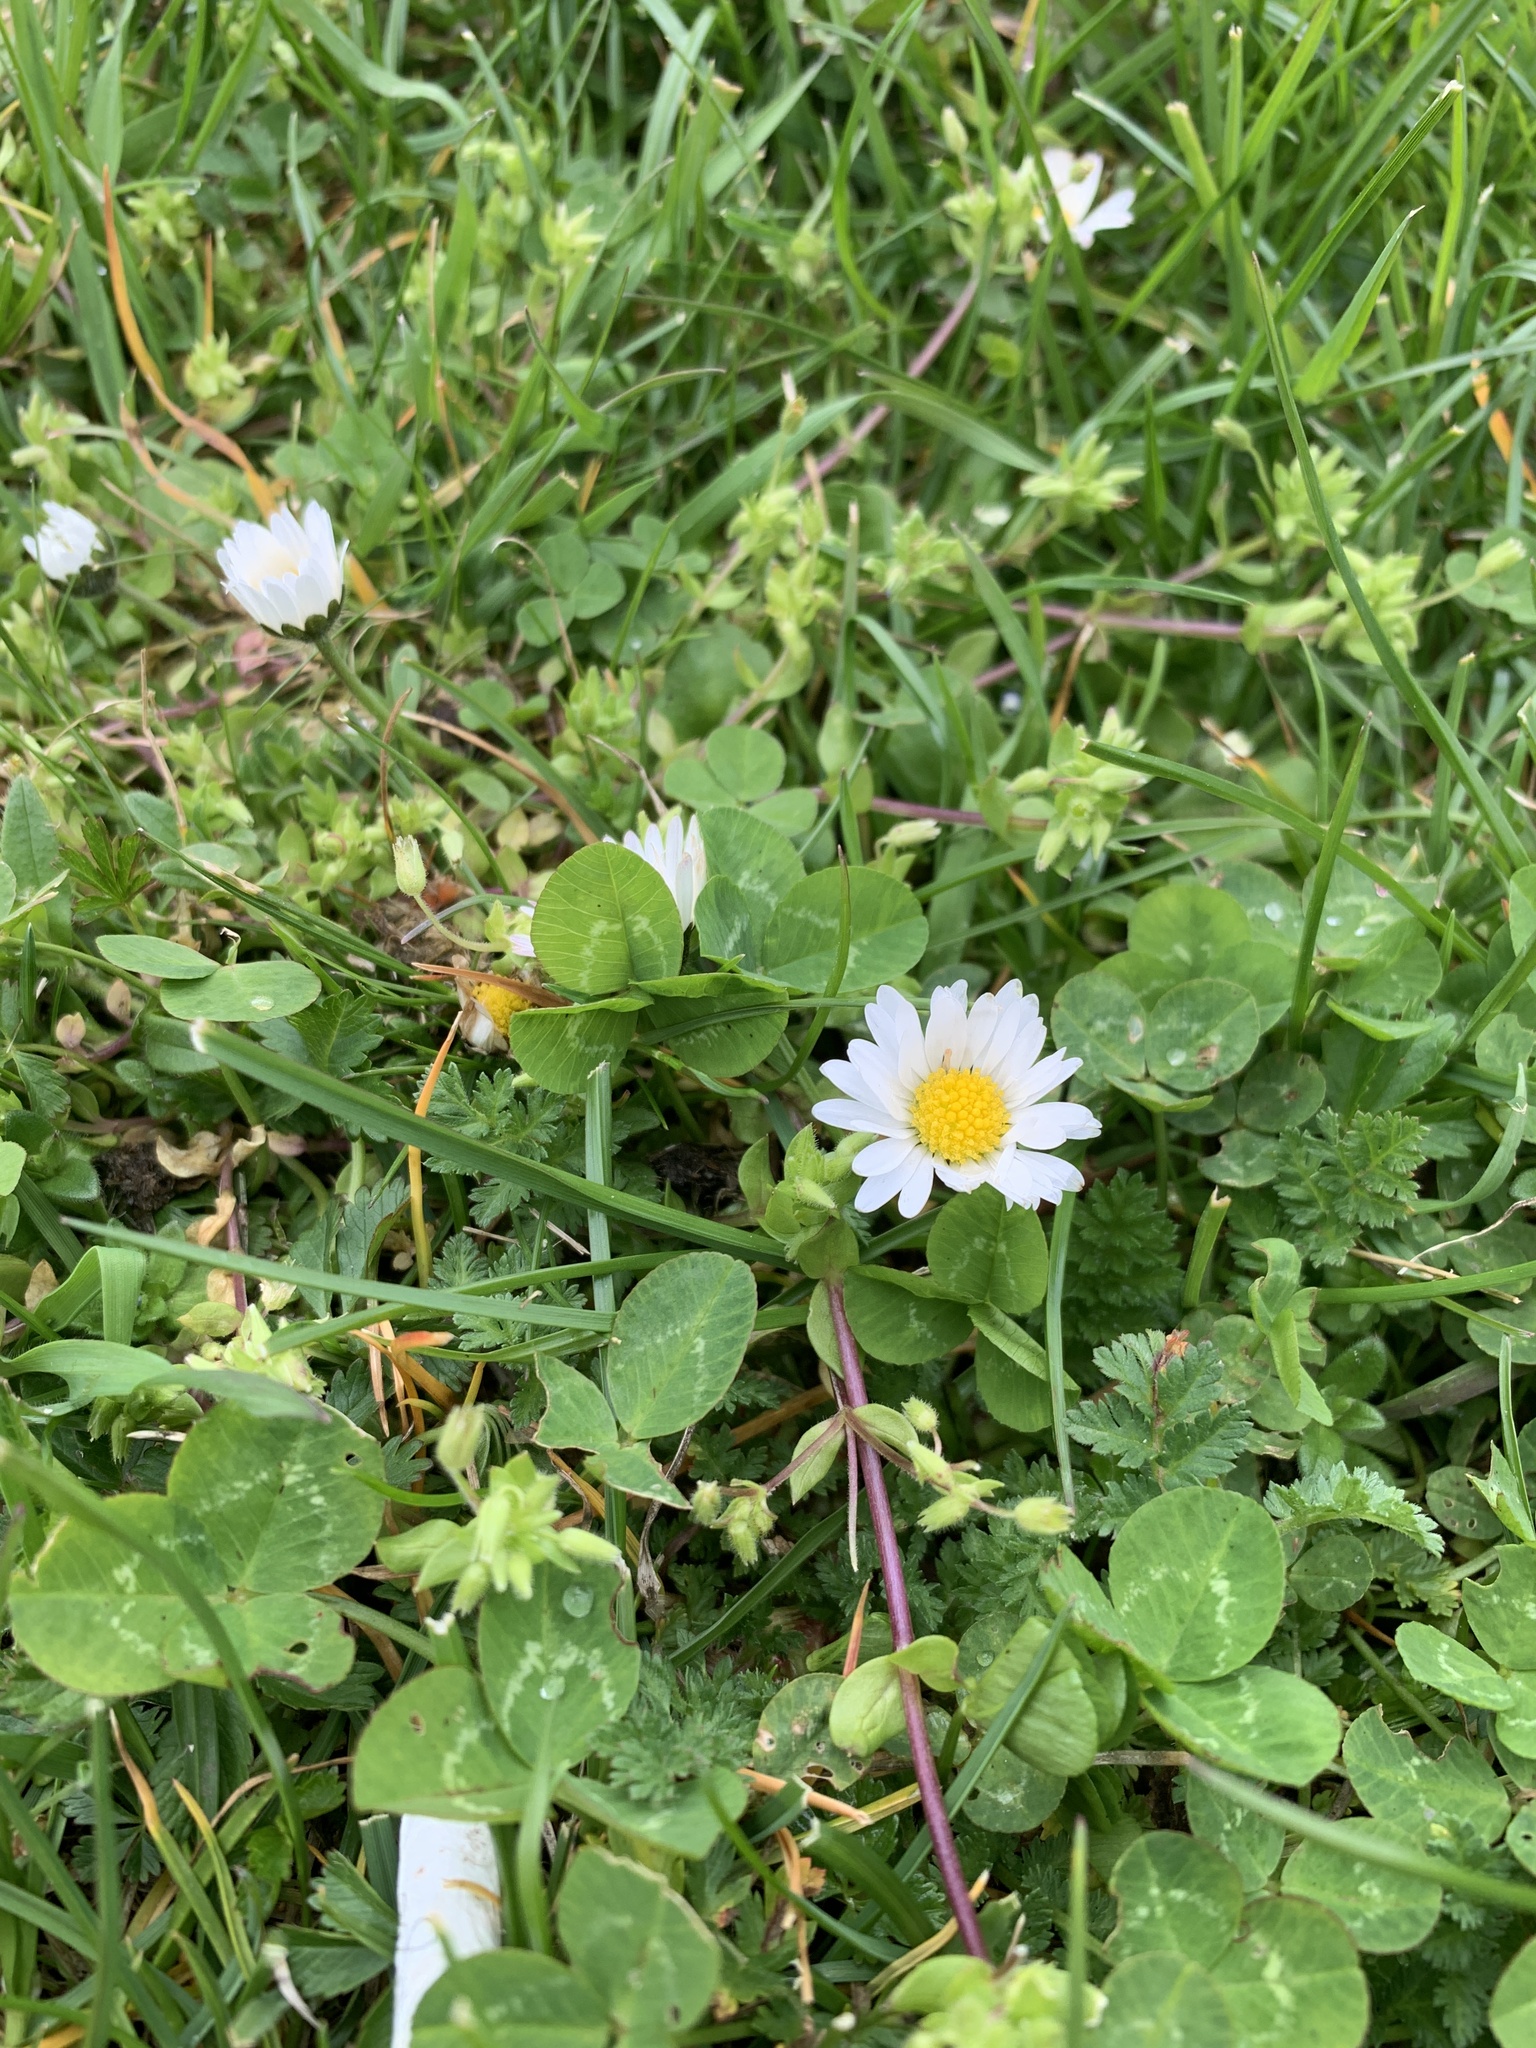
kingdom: Plantae
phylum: Tracheophyta
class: Magnoliopsida
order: Asterales
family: Asteraceae
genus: Bellis
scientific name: Bellis perennis
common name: Lawndaisy
